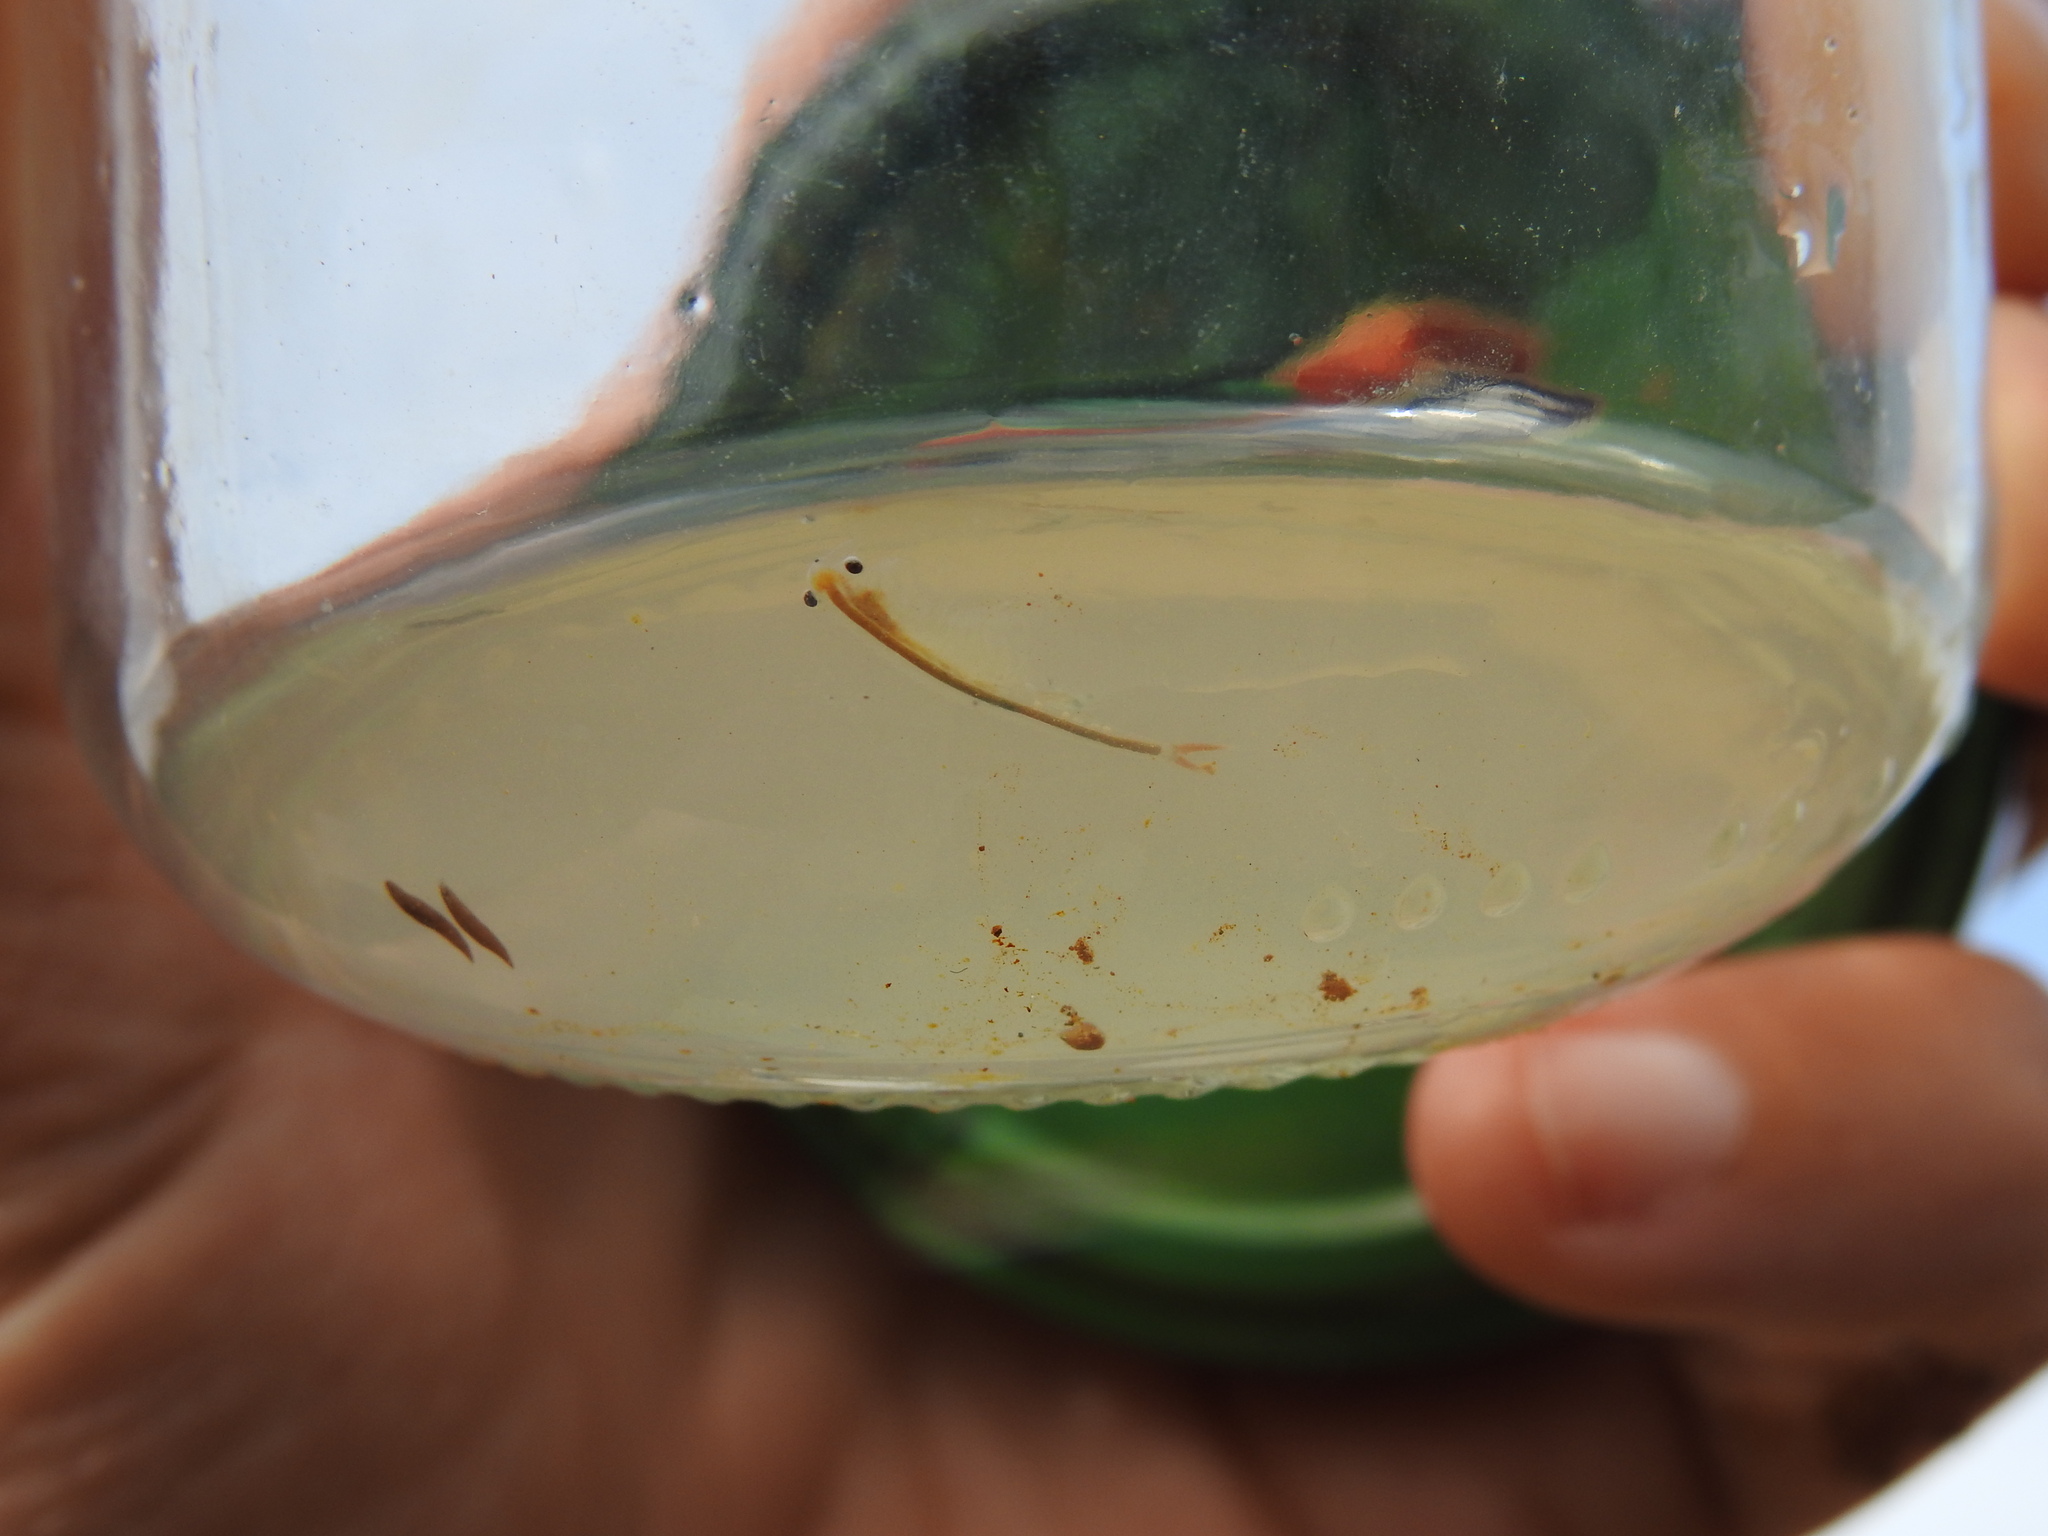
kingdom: Animalia
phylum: Arthropoda
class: Branchiopoda
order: Anostraca
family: Chirocephalidae
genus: Chirocephalus
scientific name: Chirocephalus diaphanus
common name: Fairy shrimp
